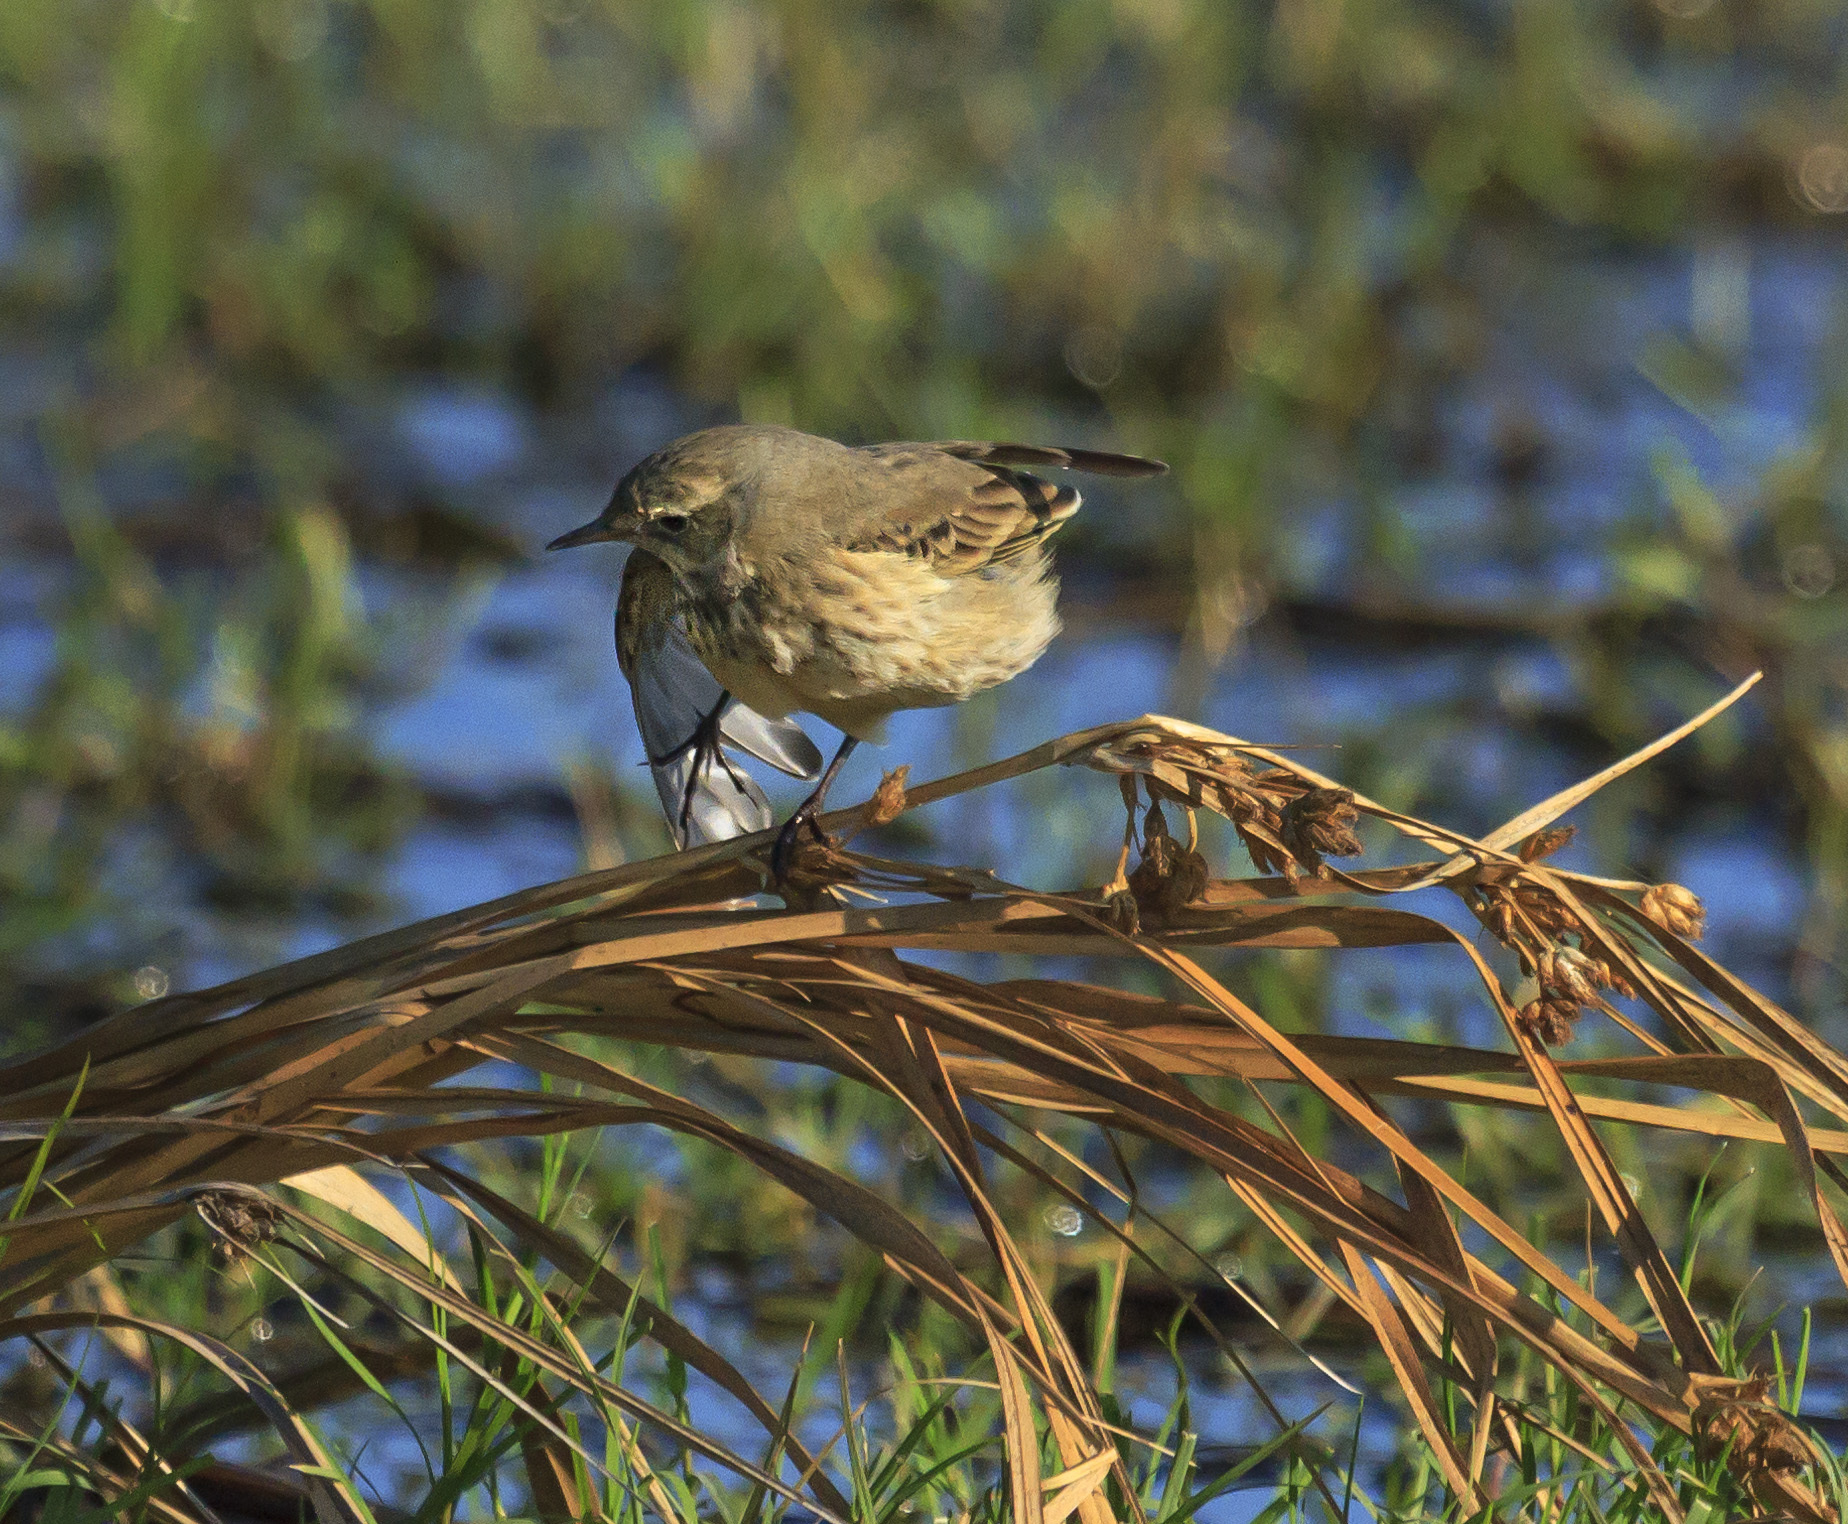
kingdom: Animalia
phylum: Chordata
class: Aves
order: Passeriformes
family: Motacillidae
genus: Anthus
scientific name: Anthus rubescens
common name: Buff-bellied pipit
